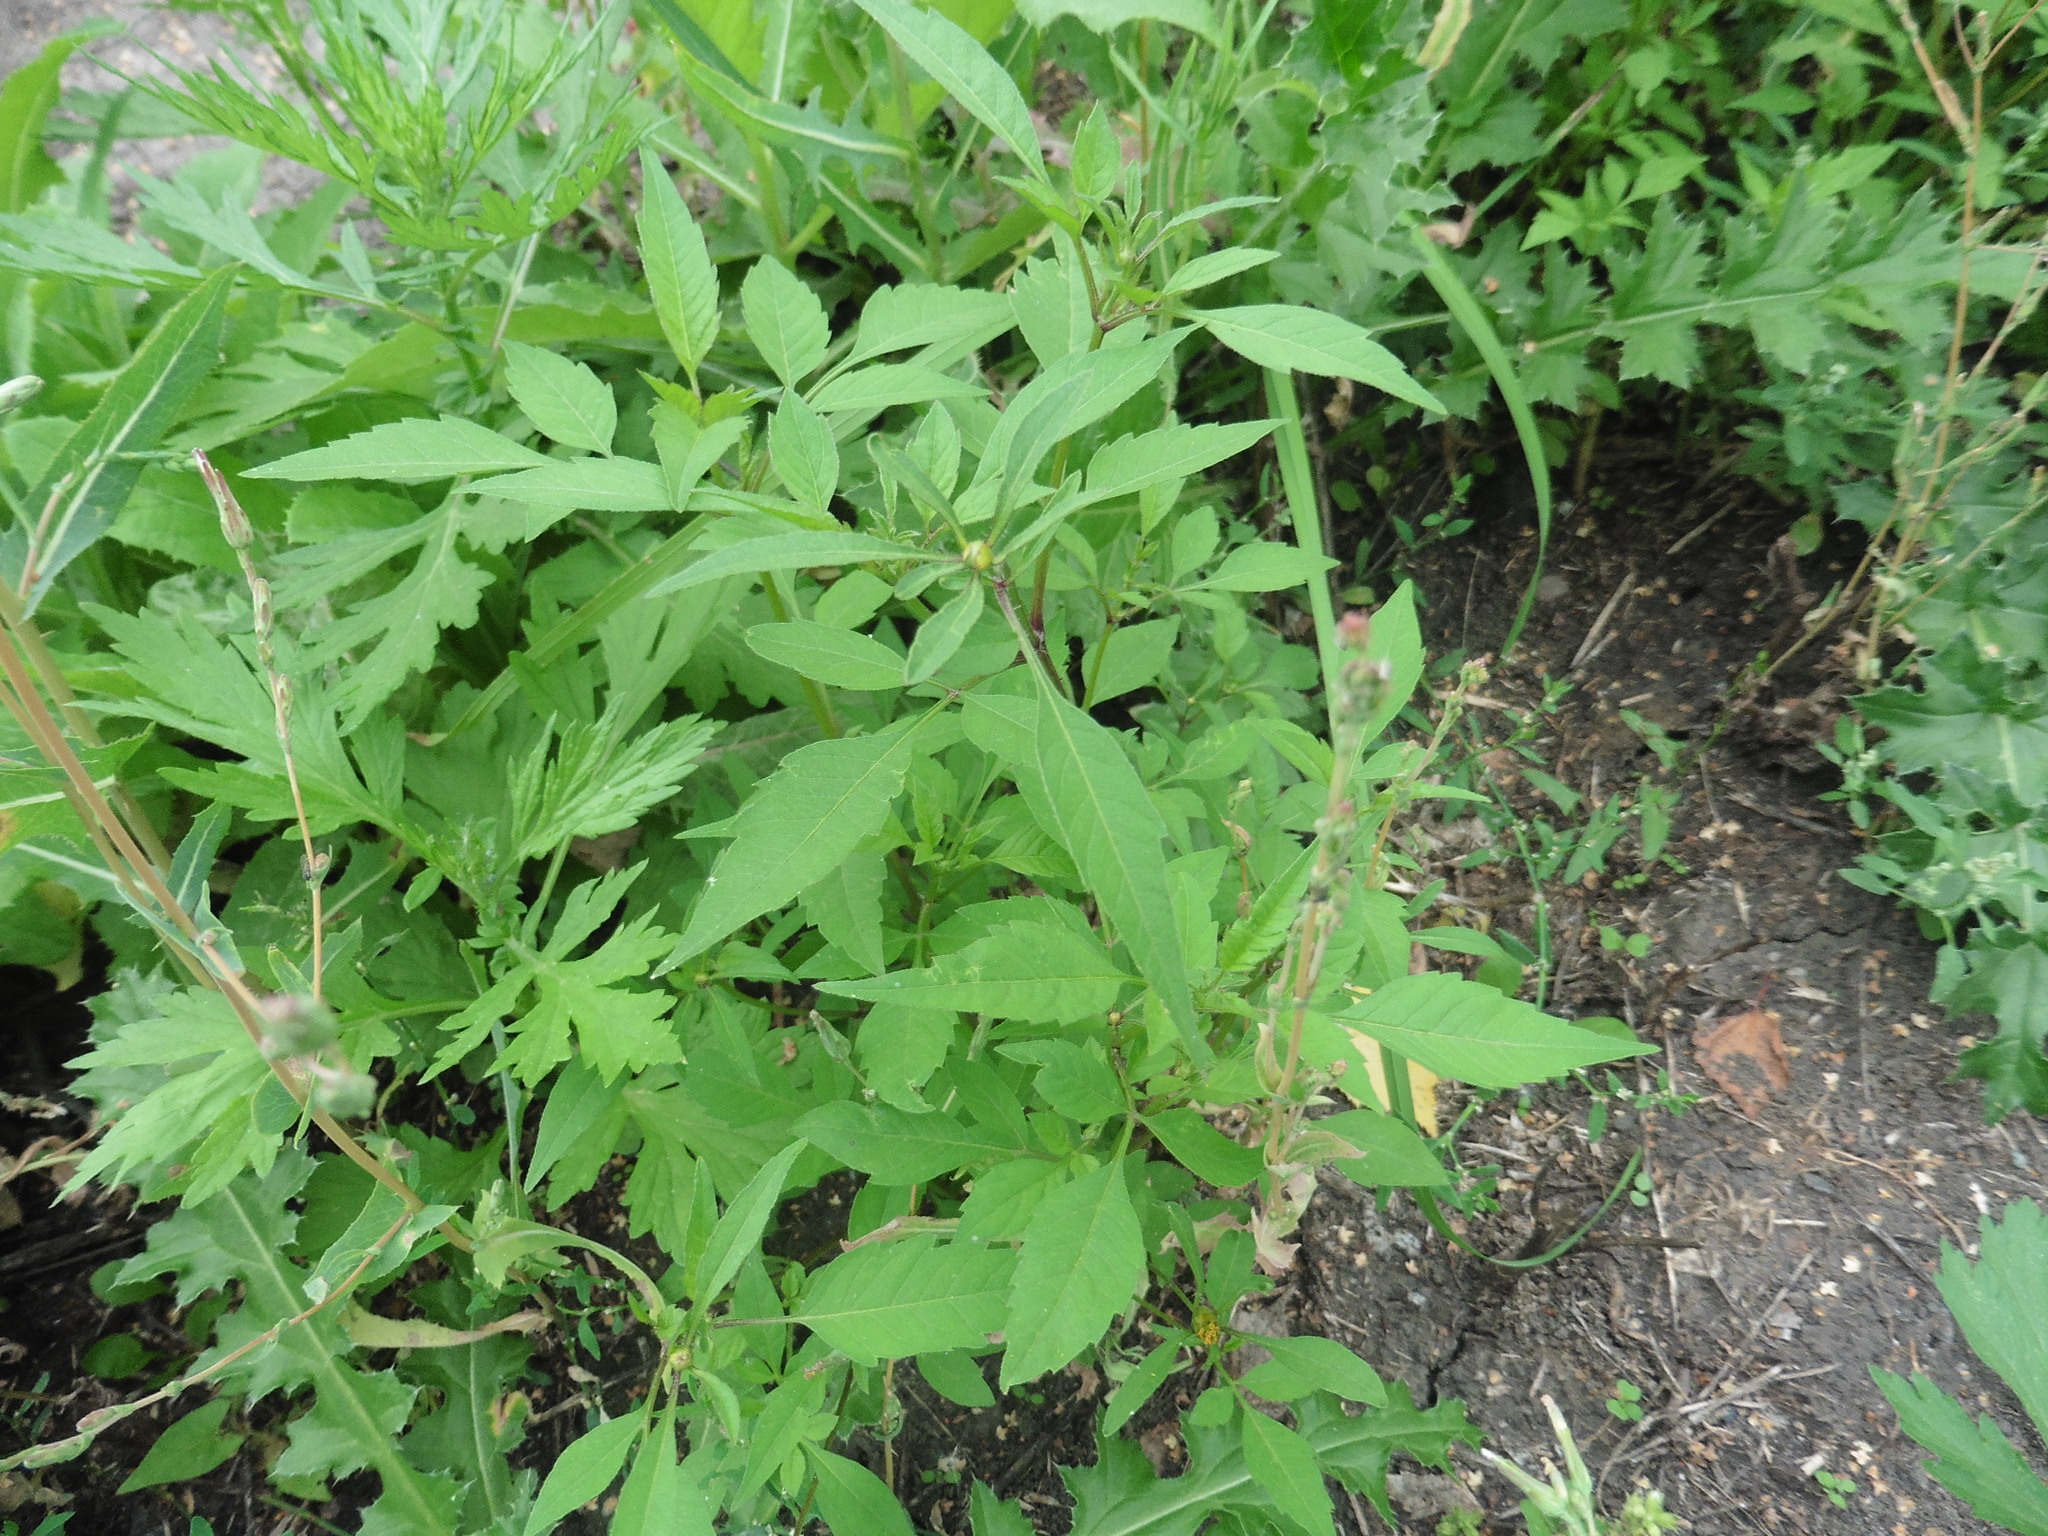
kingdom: Plantae
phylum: Tracheophyta
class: Magnoliopsida
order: Asterales
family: Asteraceae
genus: Bidens
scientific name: Bidens frondosa
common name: Beggarticks
